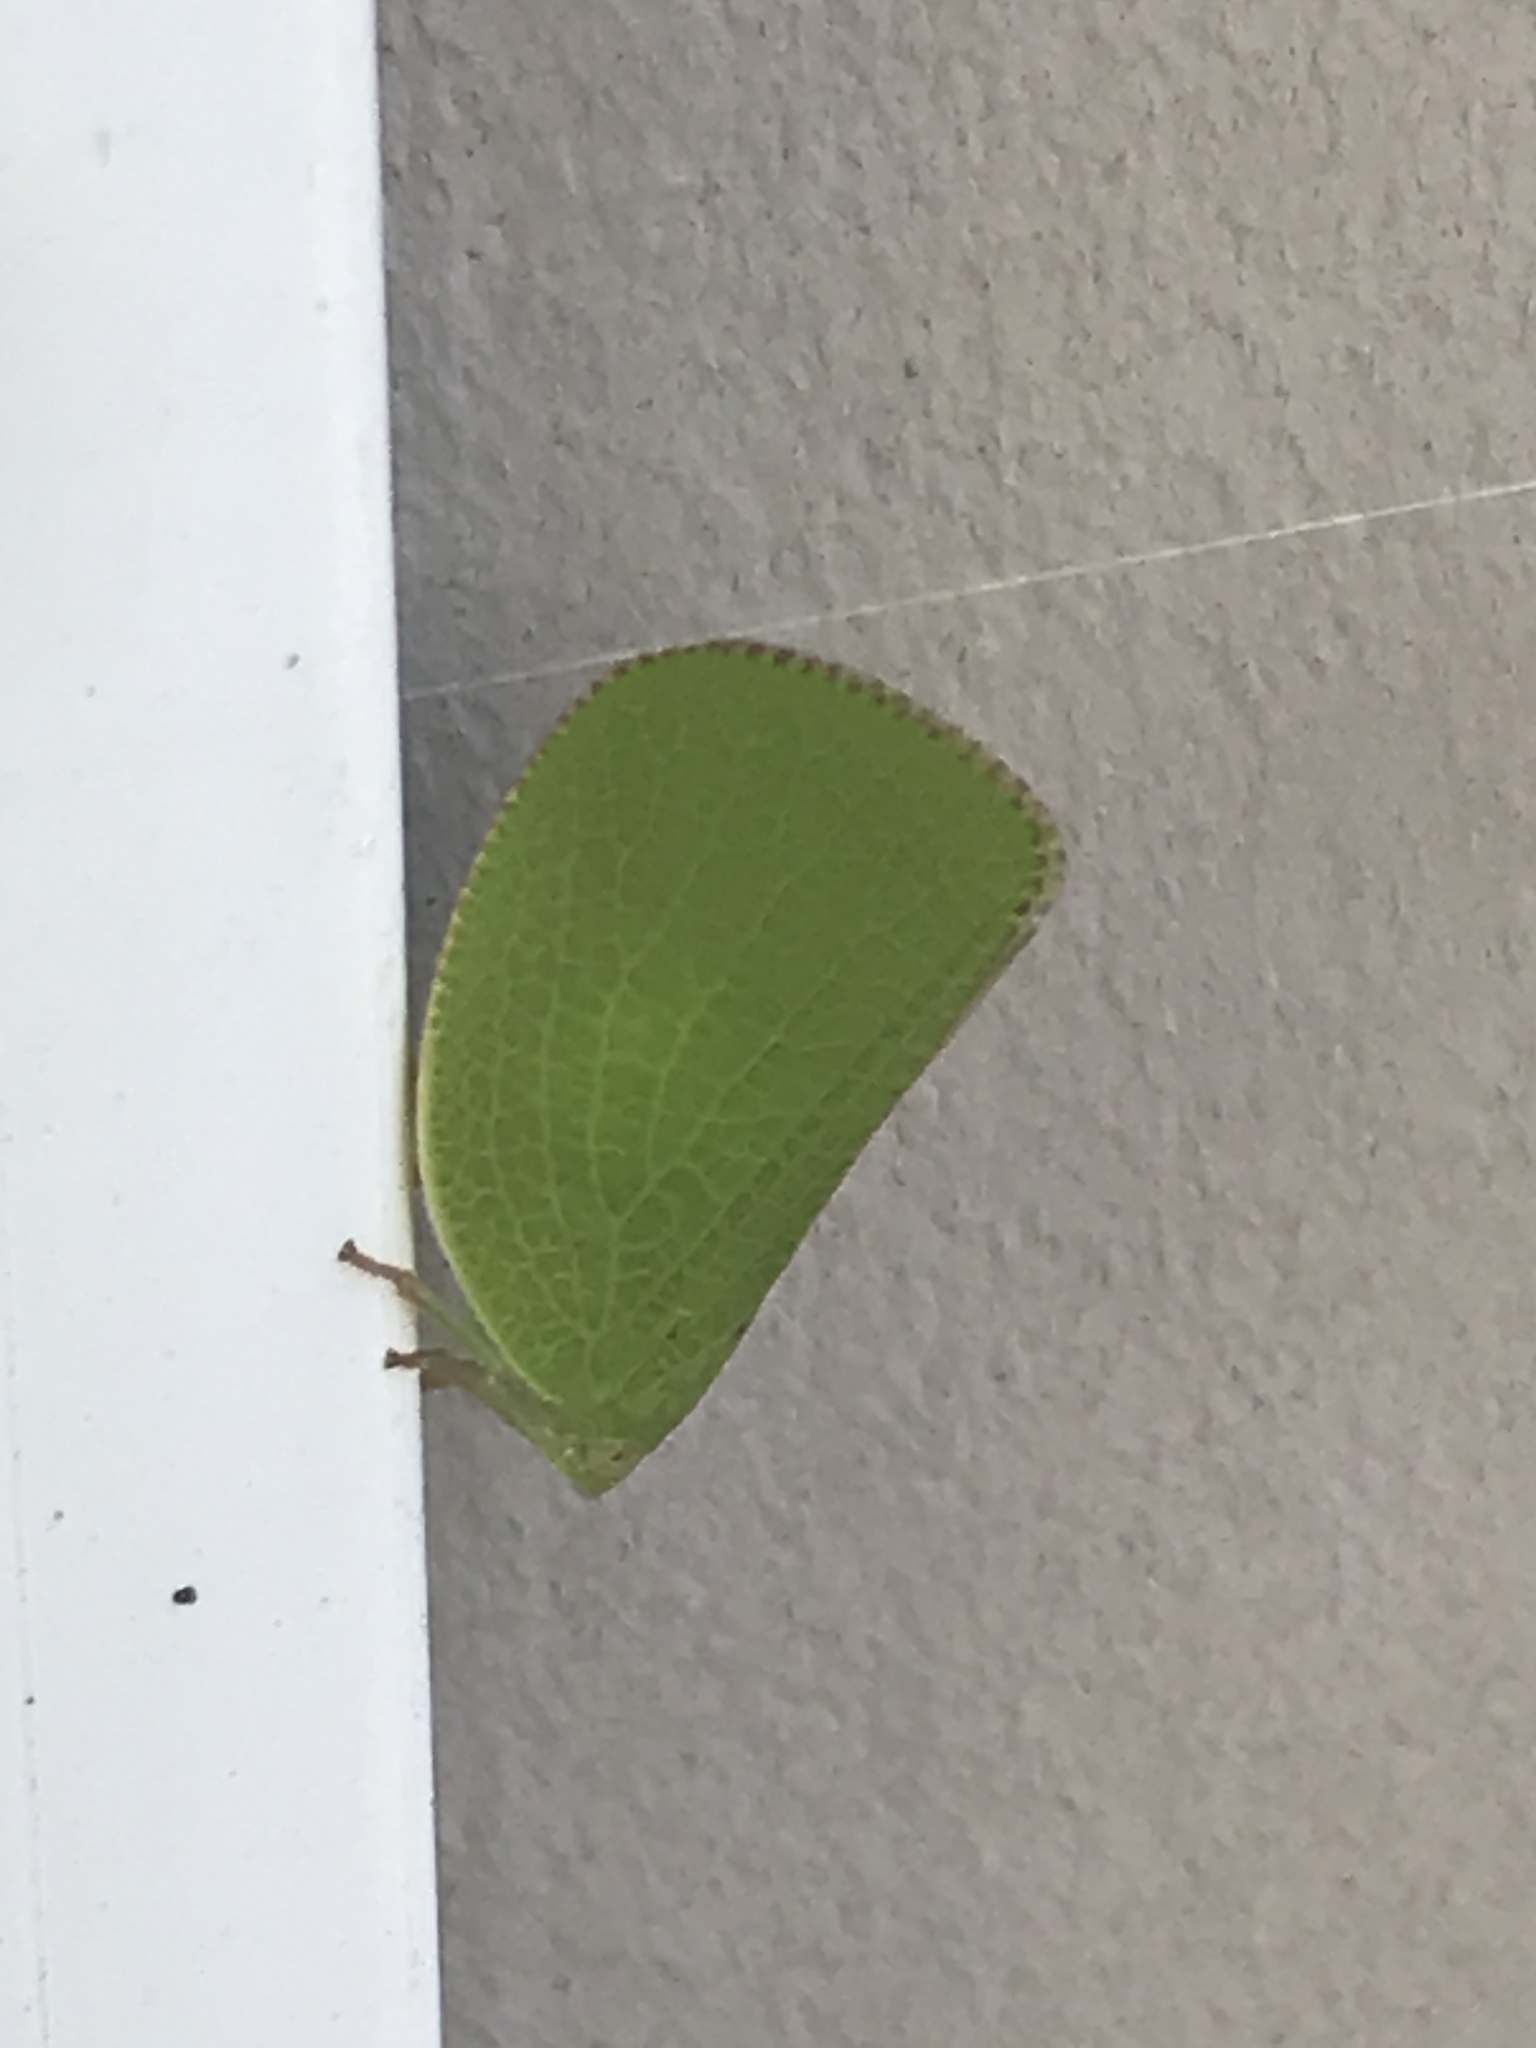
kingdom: Animalia
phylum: Arthropoda
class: Insecta
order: Hemiptera
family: Acanaloniidae
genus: Acanalonia
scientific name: Acanalonia conica
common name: Green cone-headed planthopper
